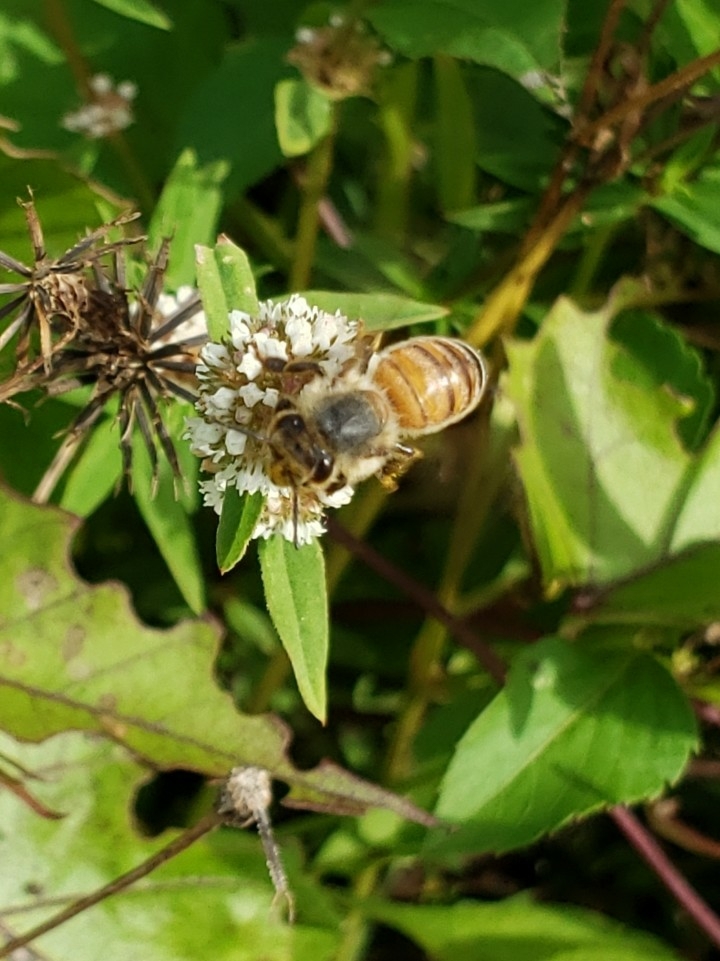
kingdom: Animalia
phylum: Arthropoda
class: Insecta
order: Hymenoptera
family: Apidae
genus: Apis
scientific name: Apis mellifera
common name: Honey bee
